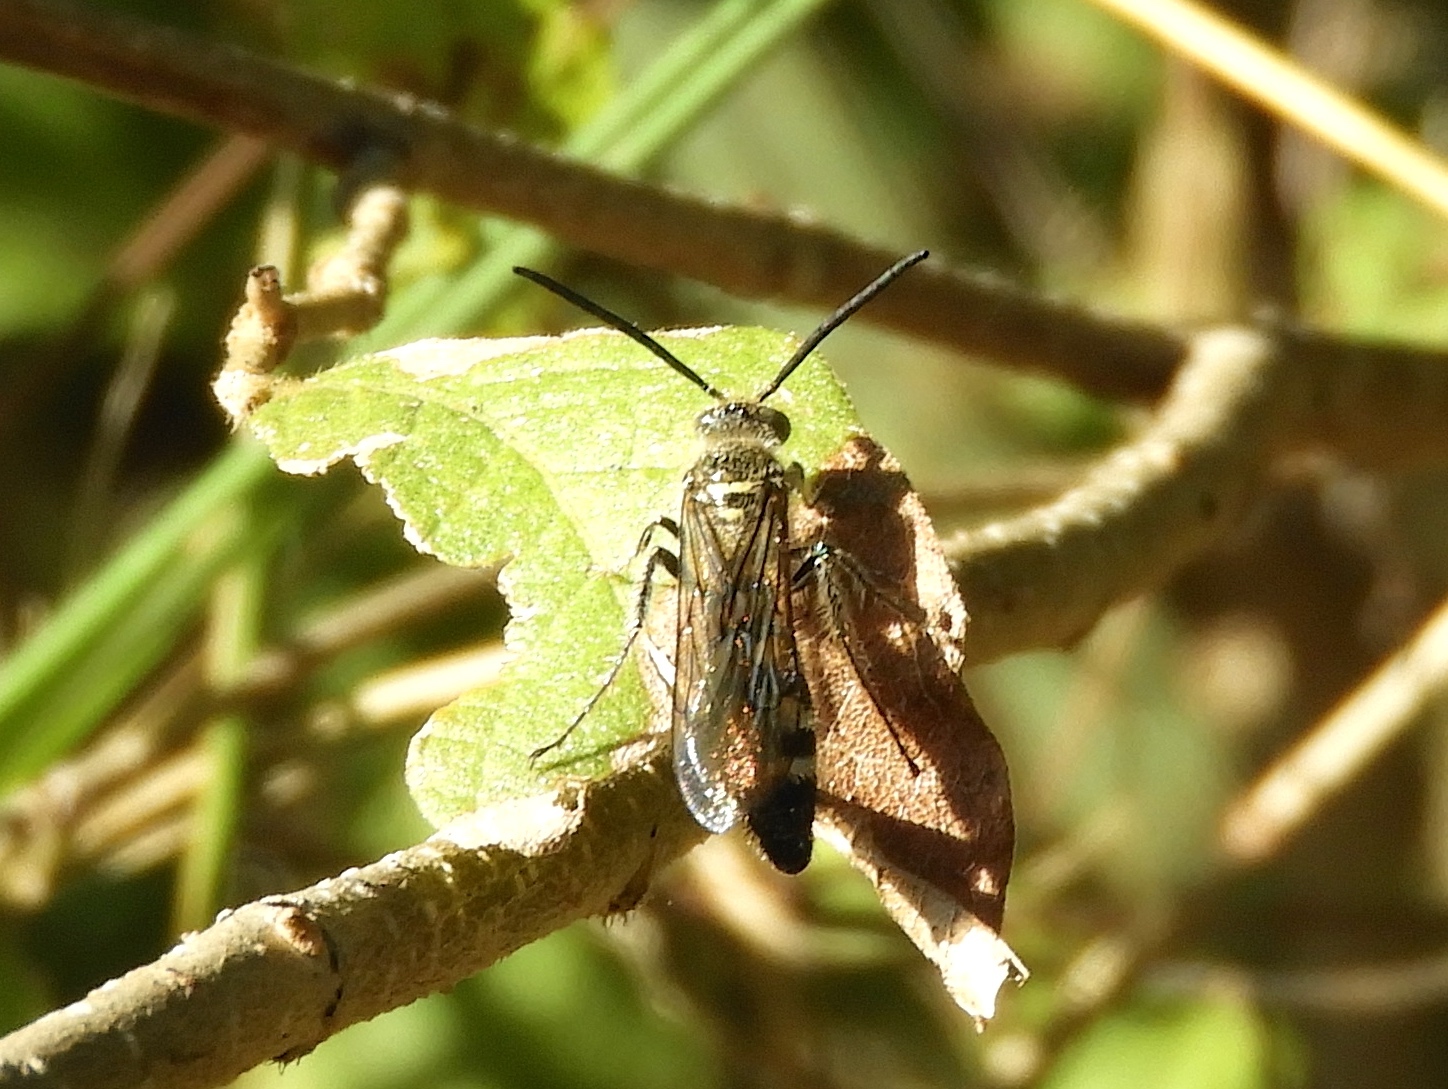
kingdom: Animalia
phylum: Arthropoda
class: Insecta
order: Hymenoptera
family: Scoliidae
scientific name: Scoliidae
